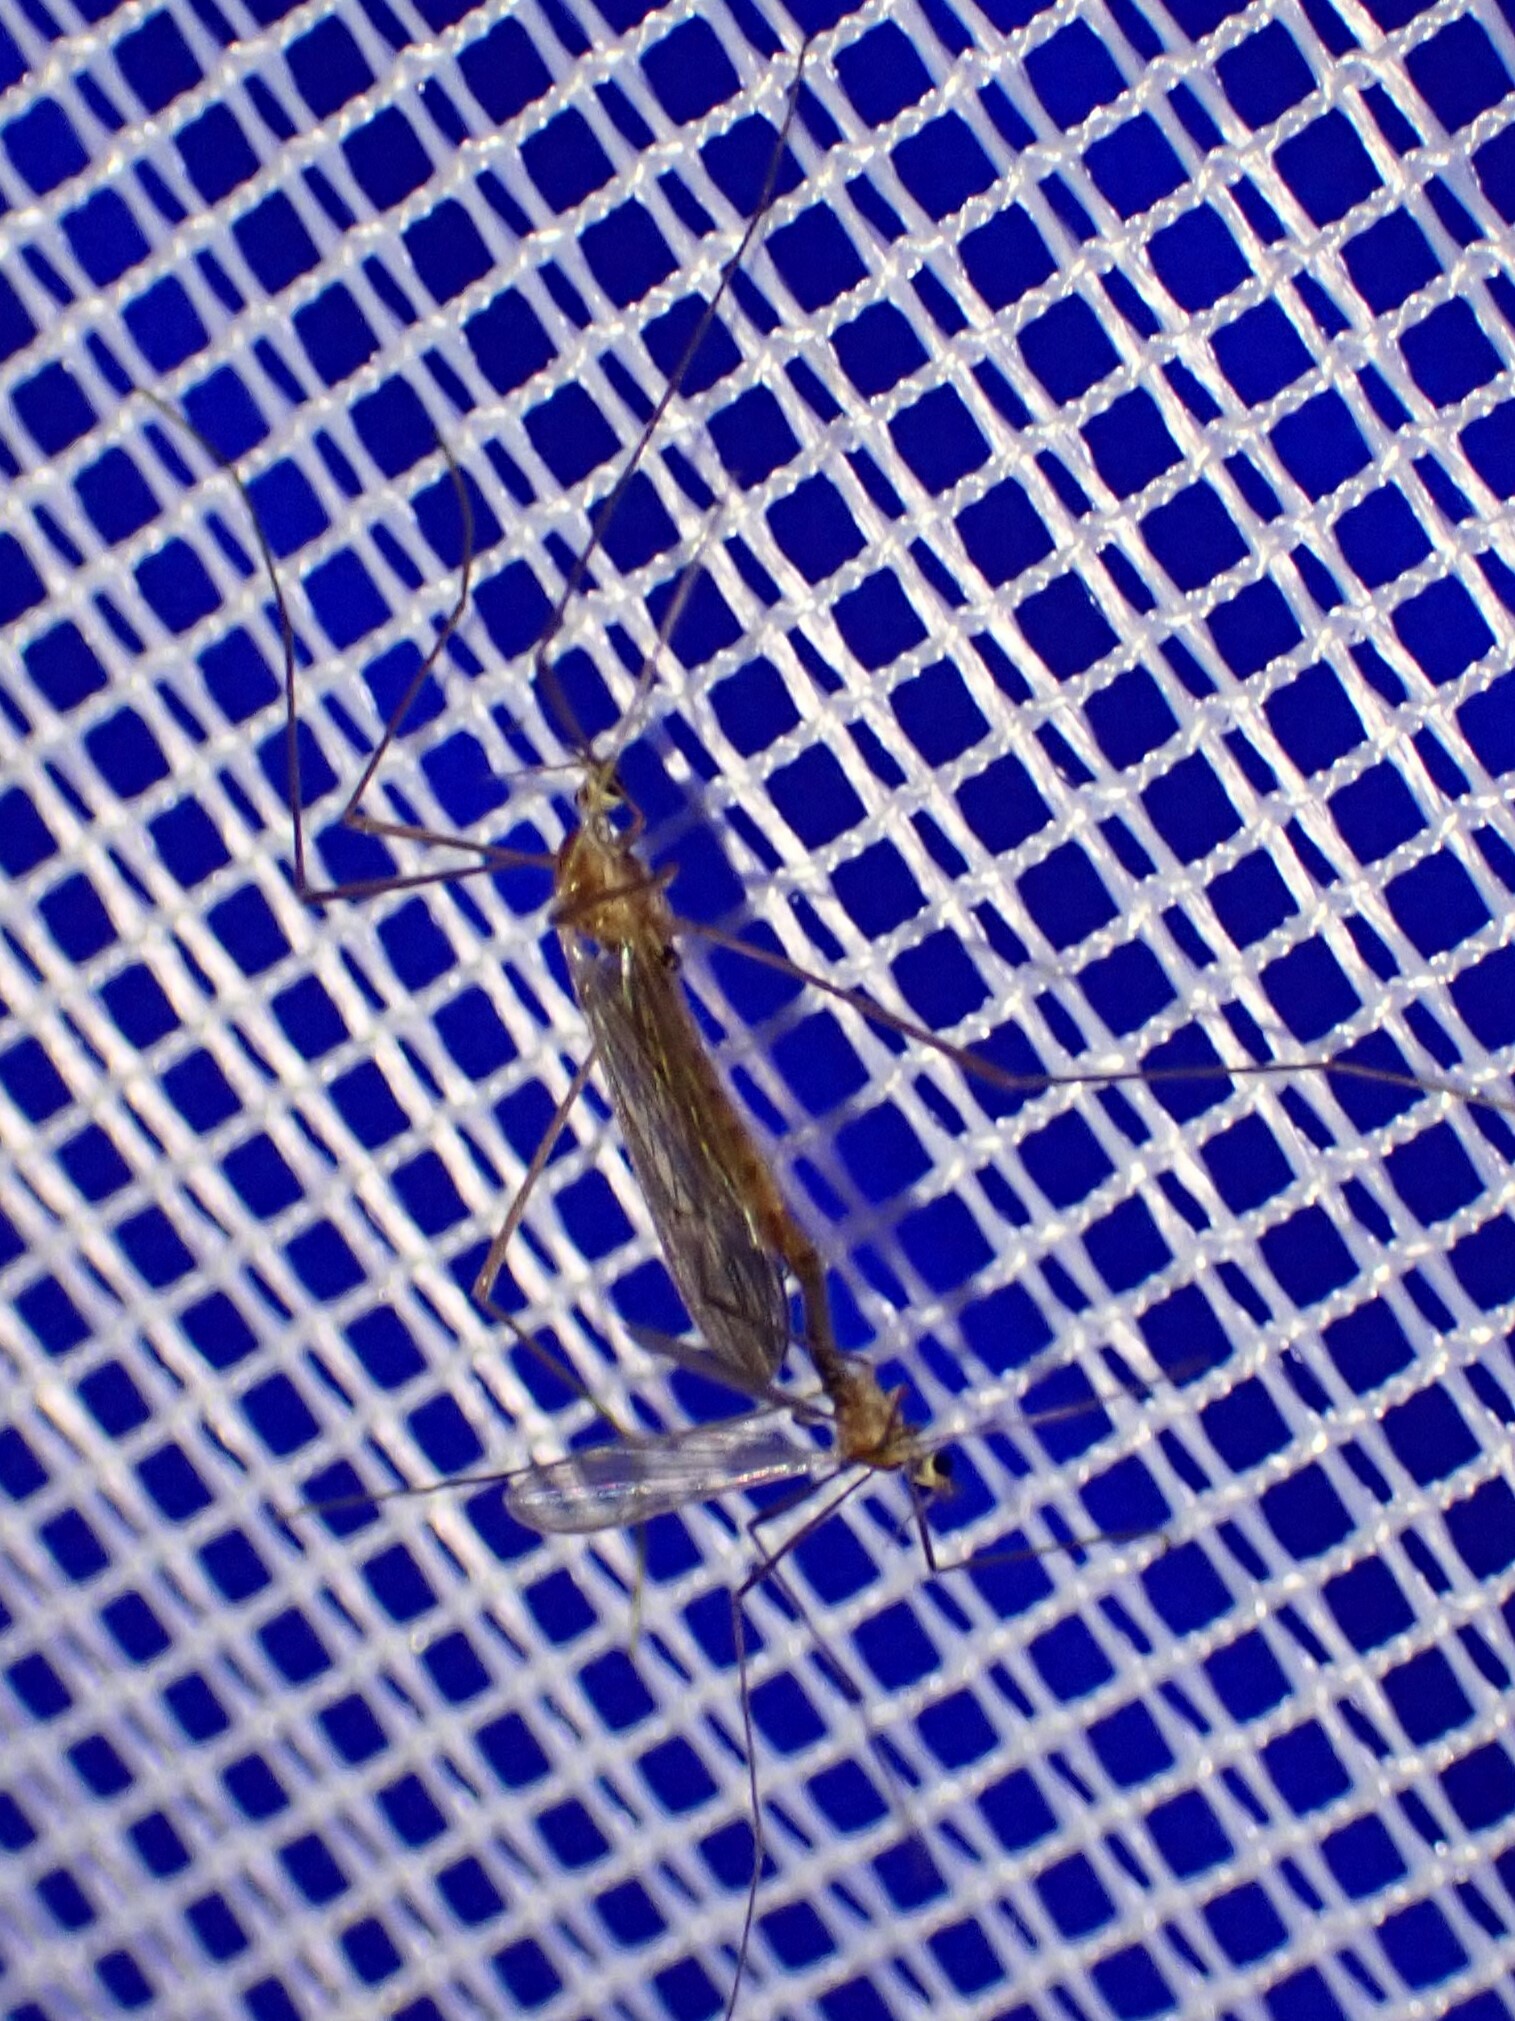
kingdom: Animalia
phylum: Arthropoda
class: Insecta
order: Diptera
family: Limoniidae
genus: Erioptera
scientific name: Erioptera septemtrionis
